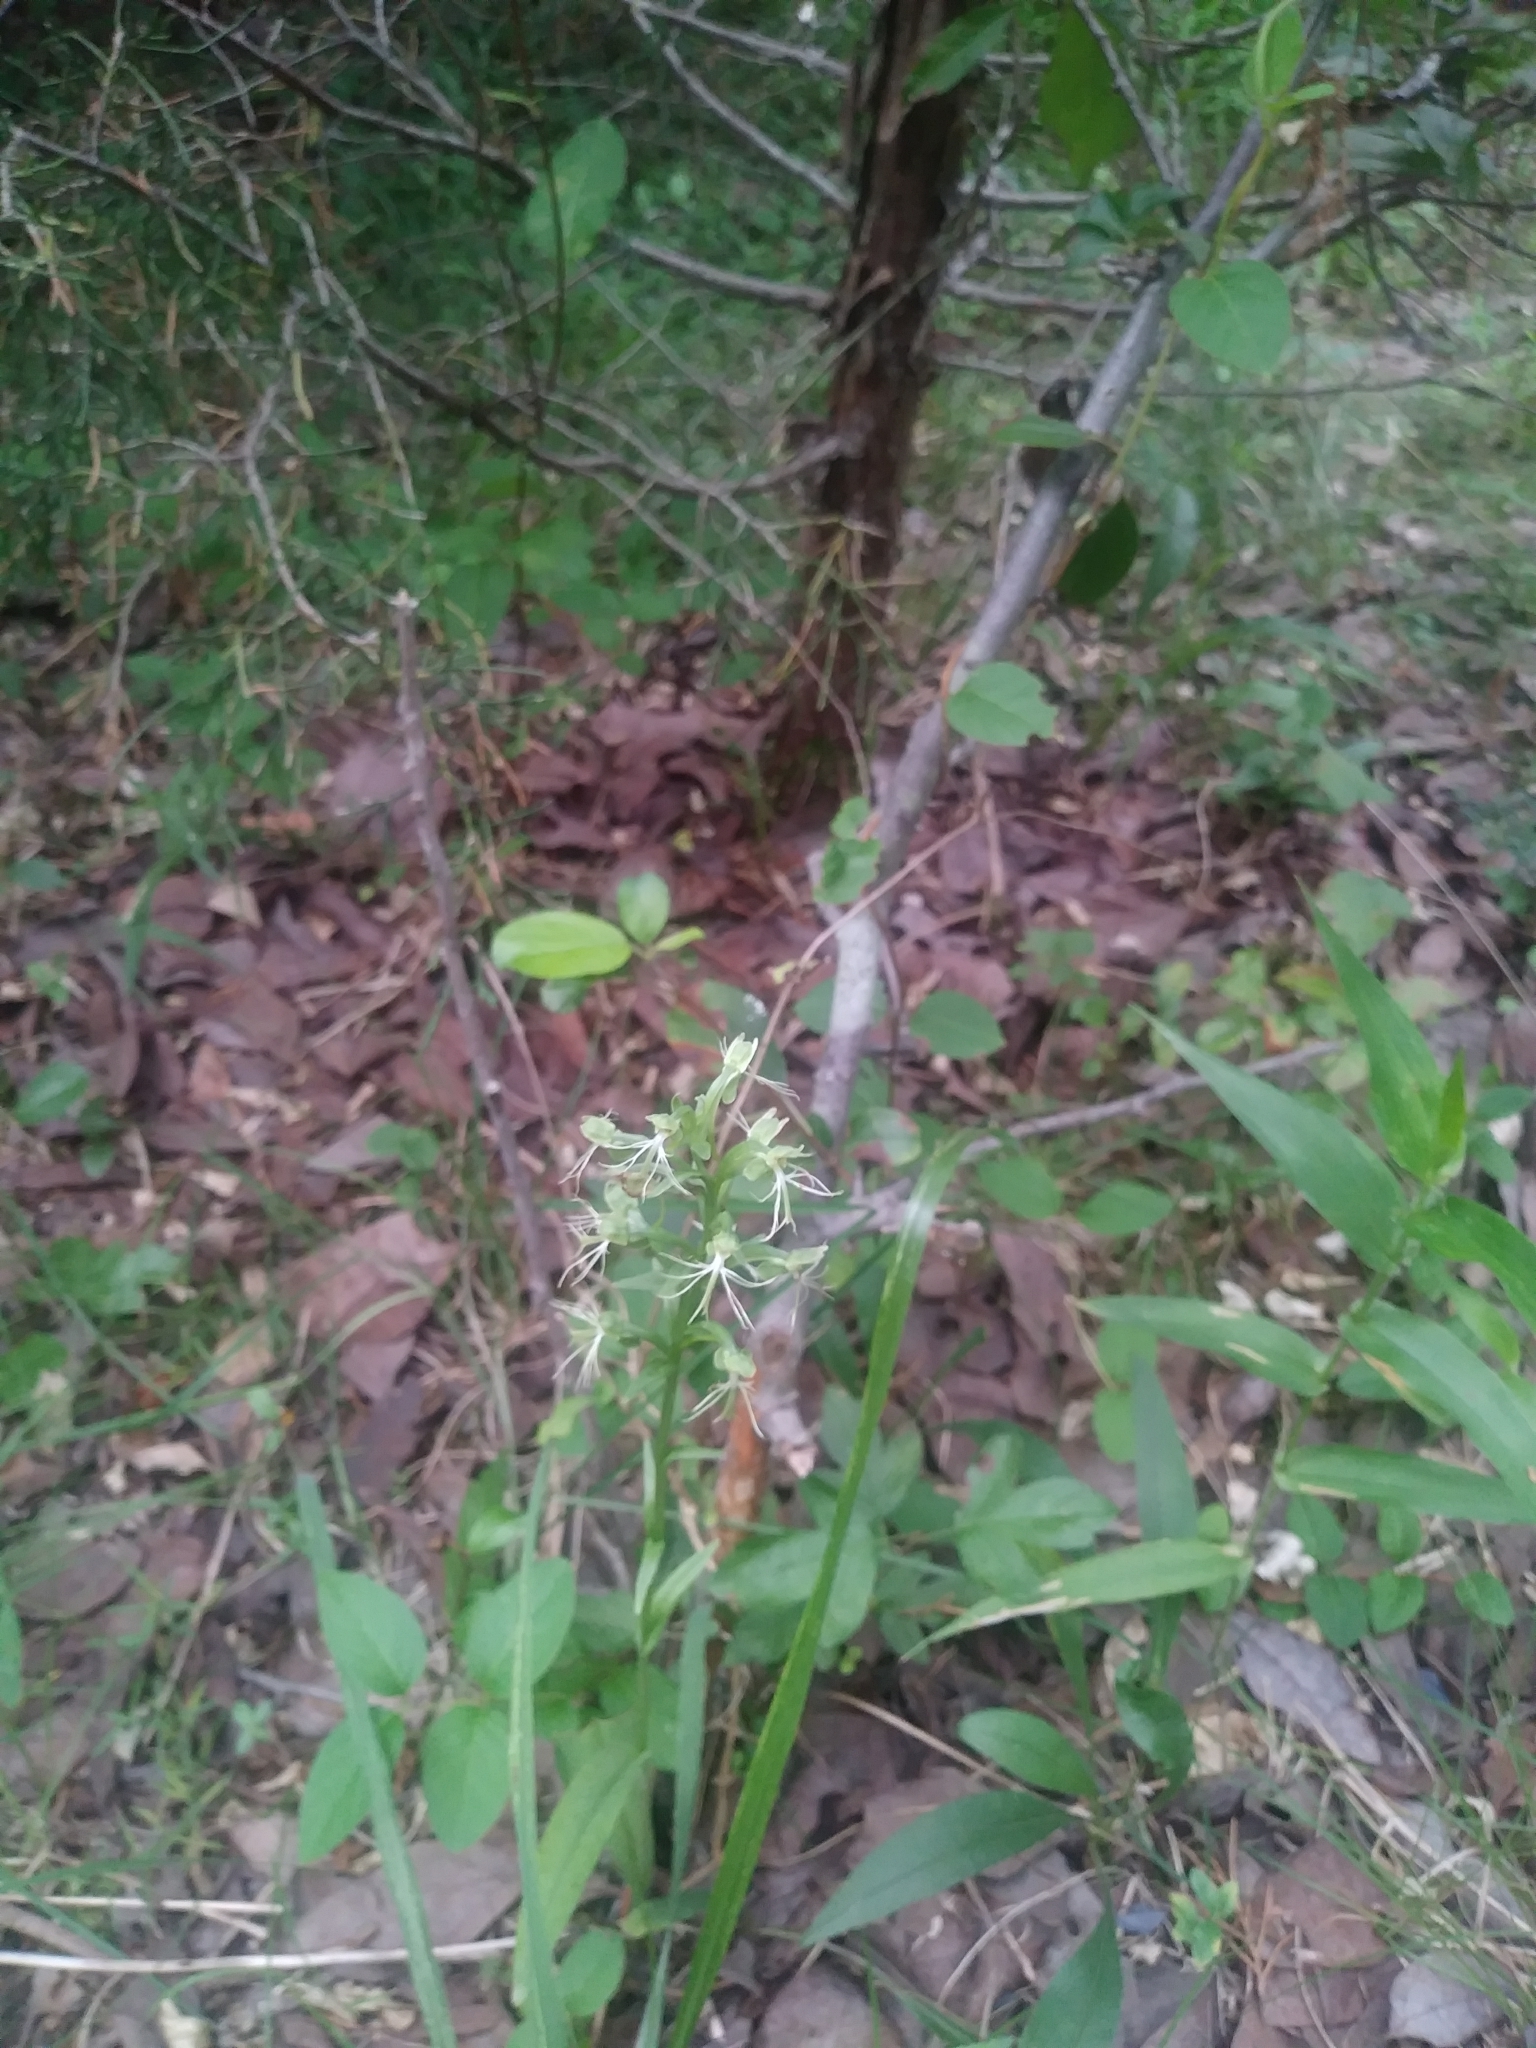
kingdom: Plantae
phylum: Tracheophyta
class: Liliopsida
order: Asparagales
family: Orchidaceae
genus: Platanthera
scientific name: Platanthera lacera
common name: Green fringed orchid
